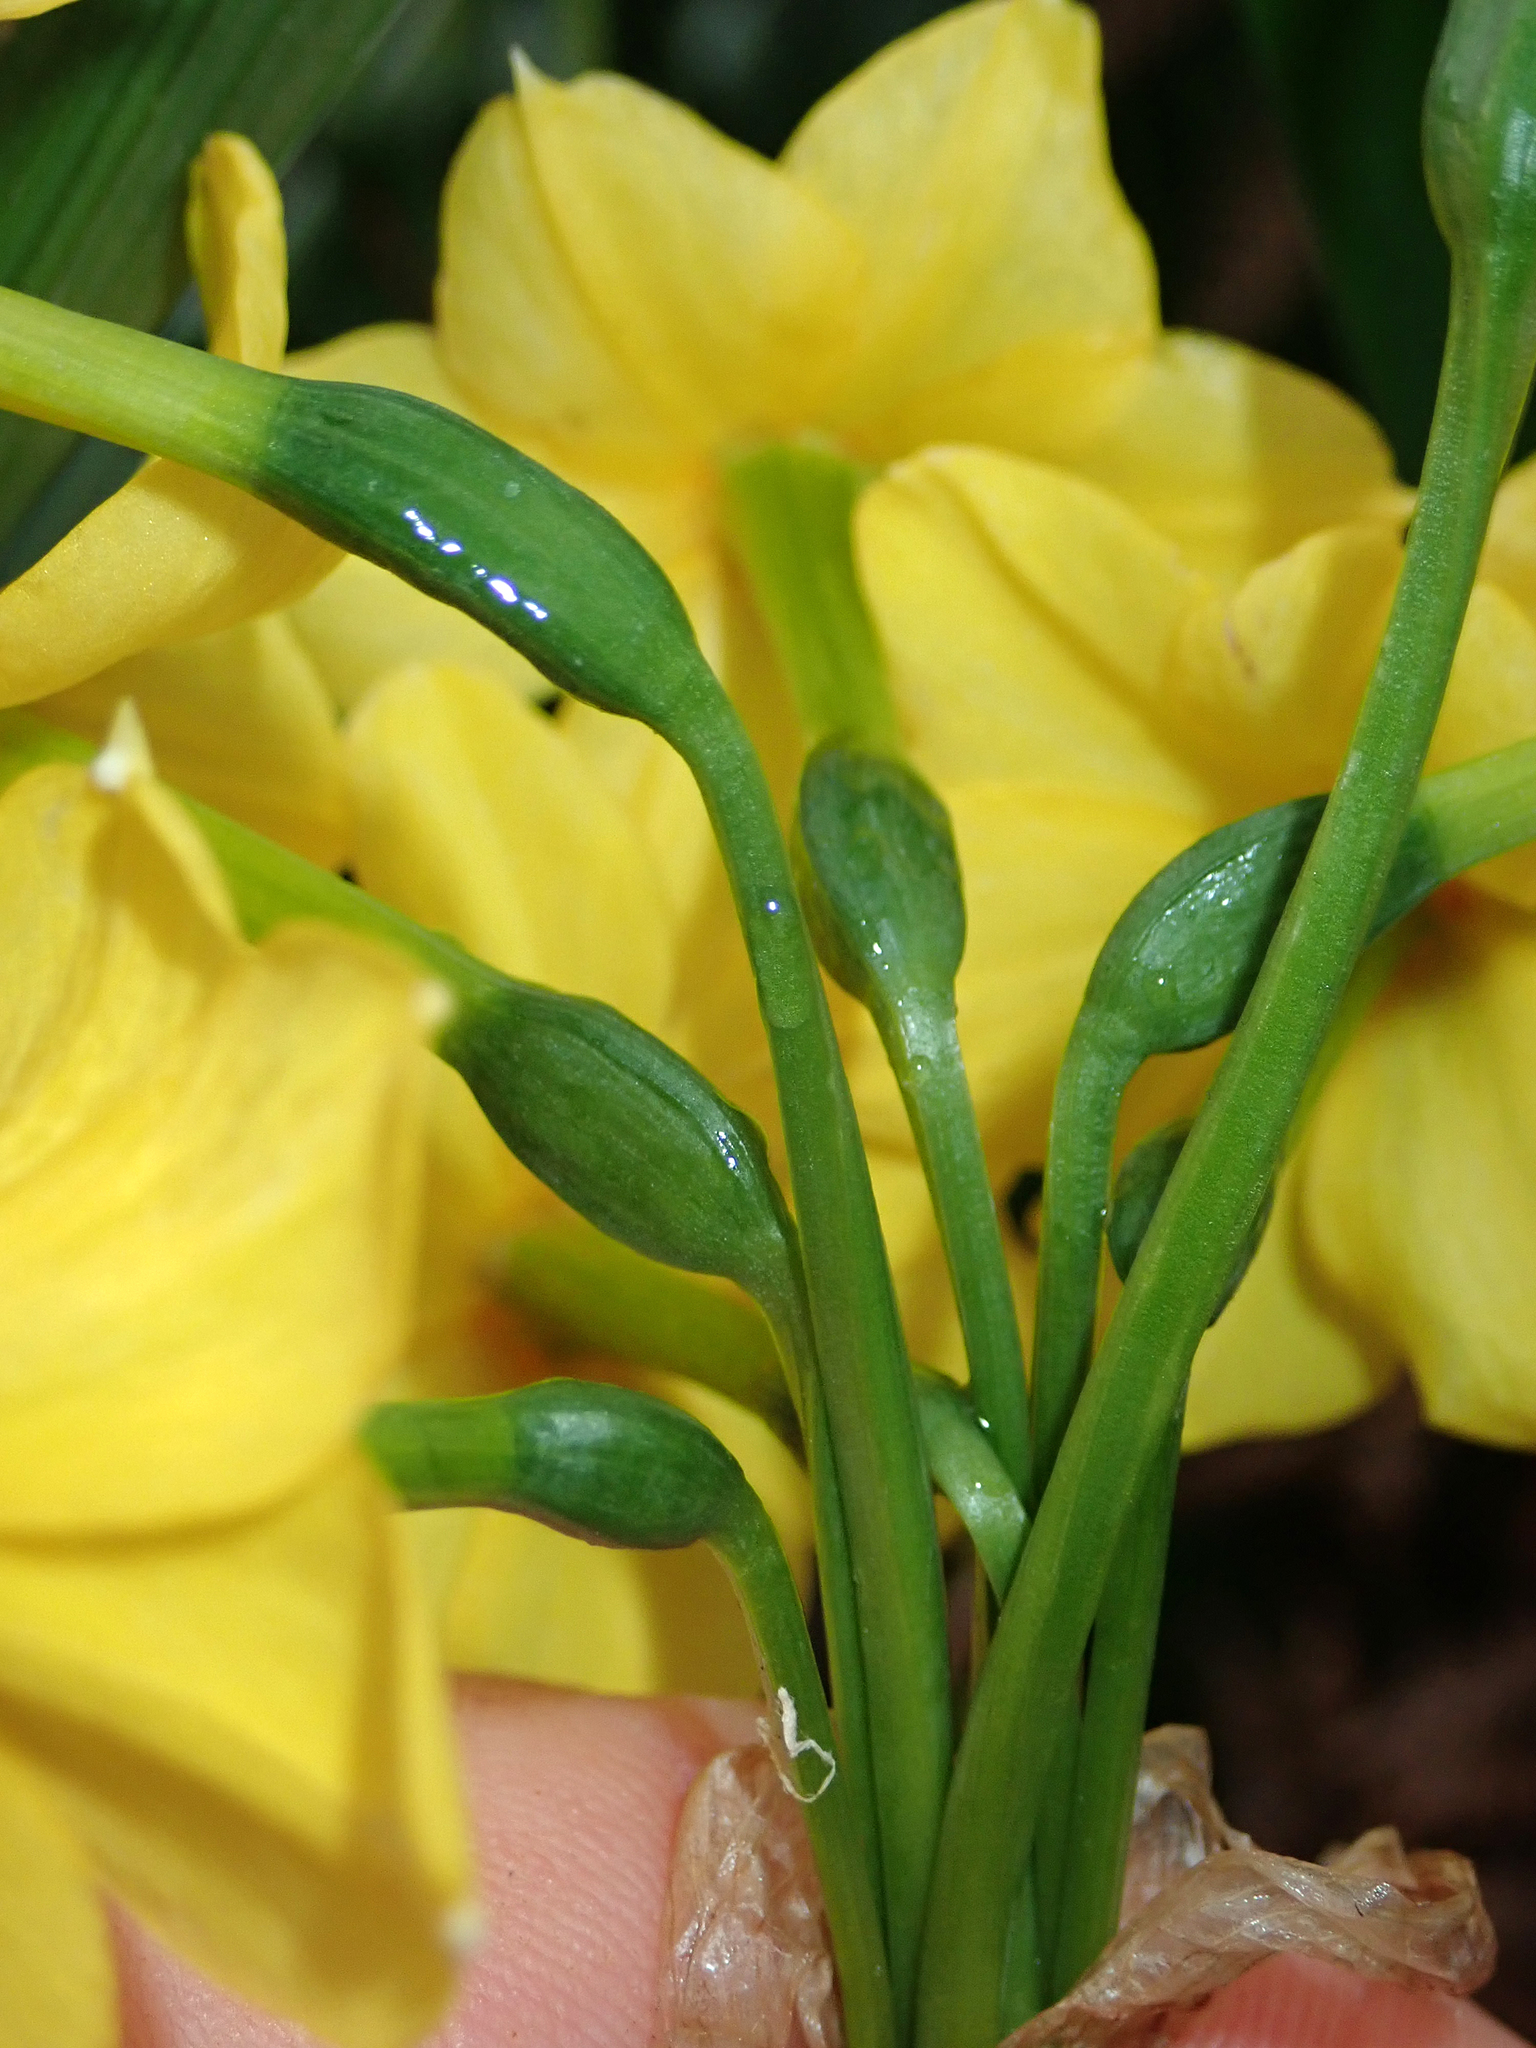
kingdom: Plantae
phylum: Tracheophyta
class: Liliopsida
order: Asparagales
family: Amaryllidaceae
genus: Narcissus
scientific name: Narcissus tazetta
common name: Bunch-flowered daffodil
